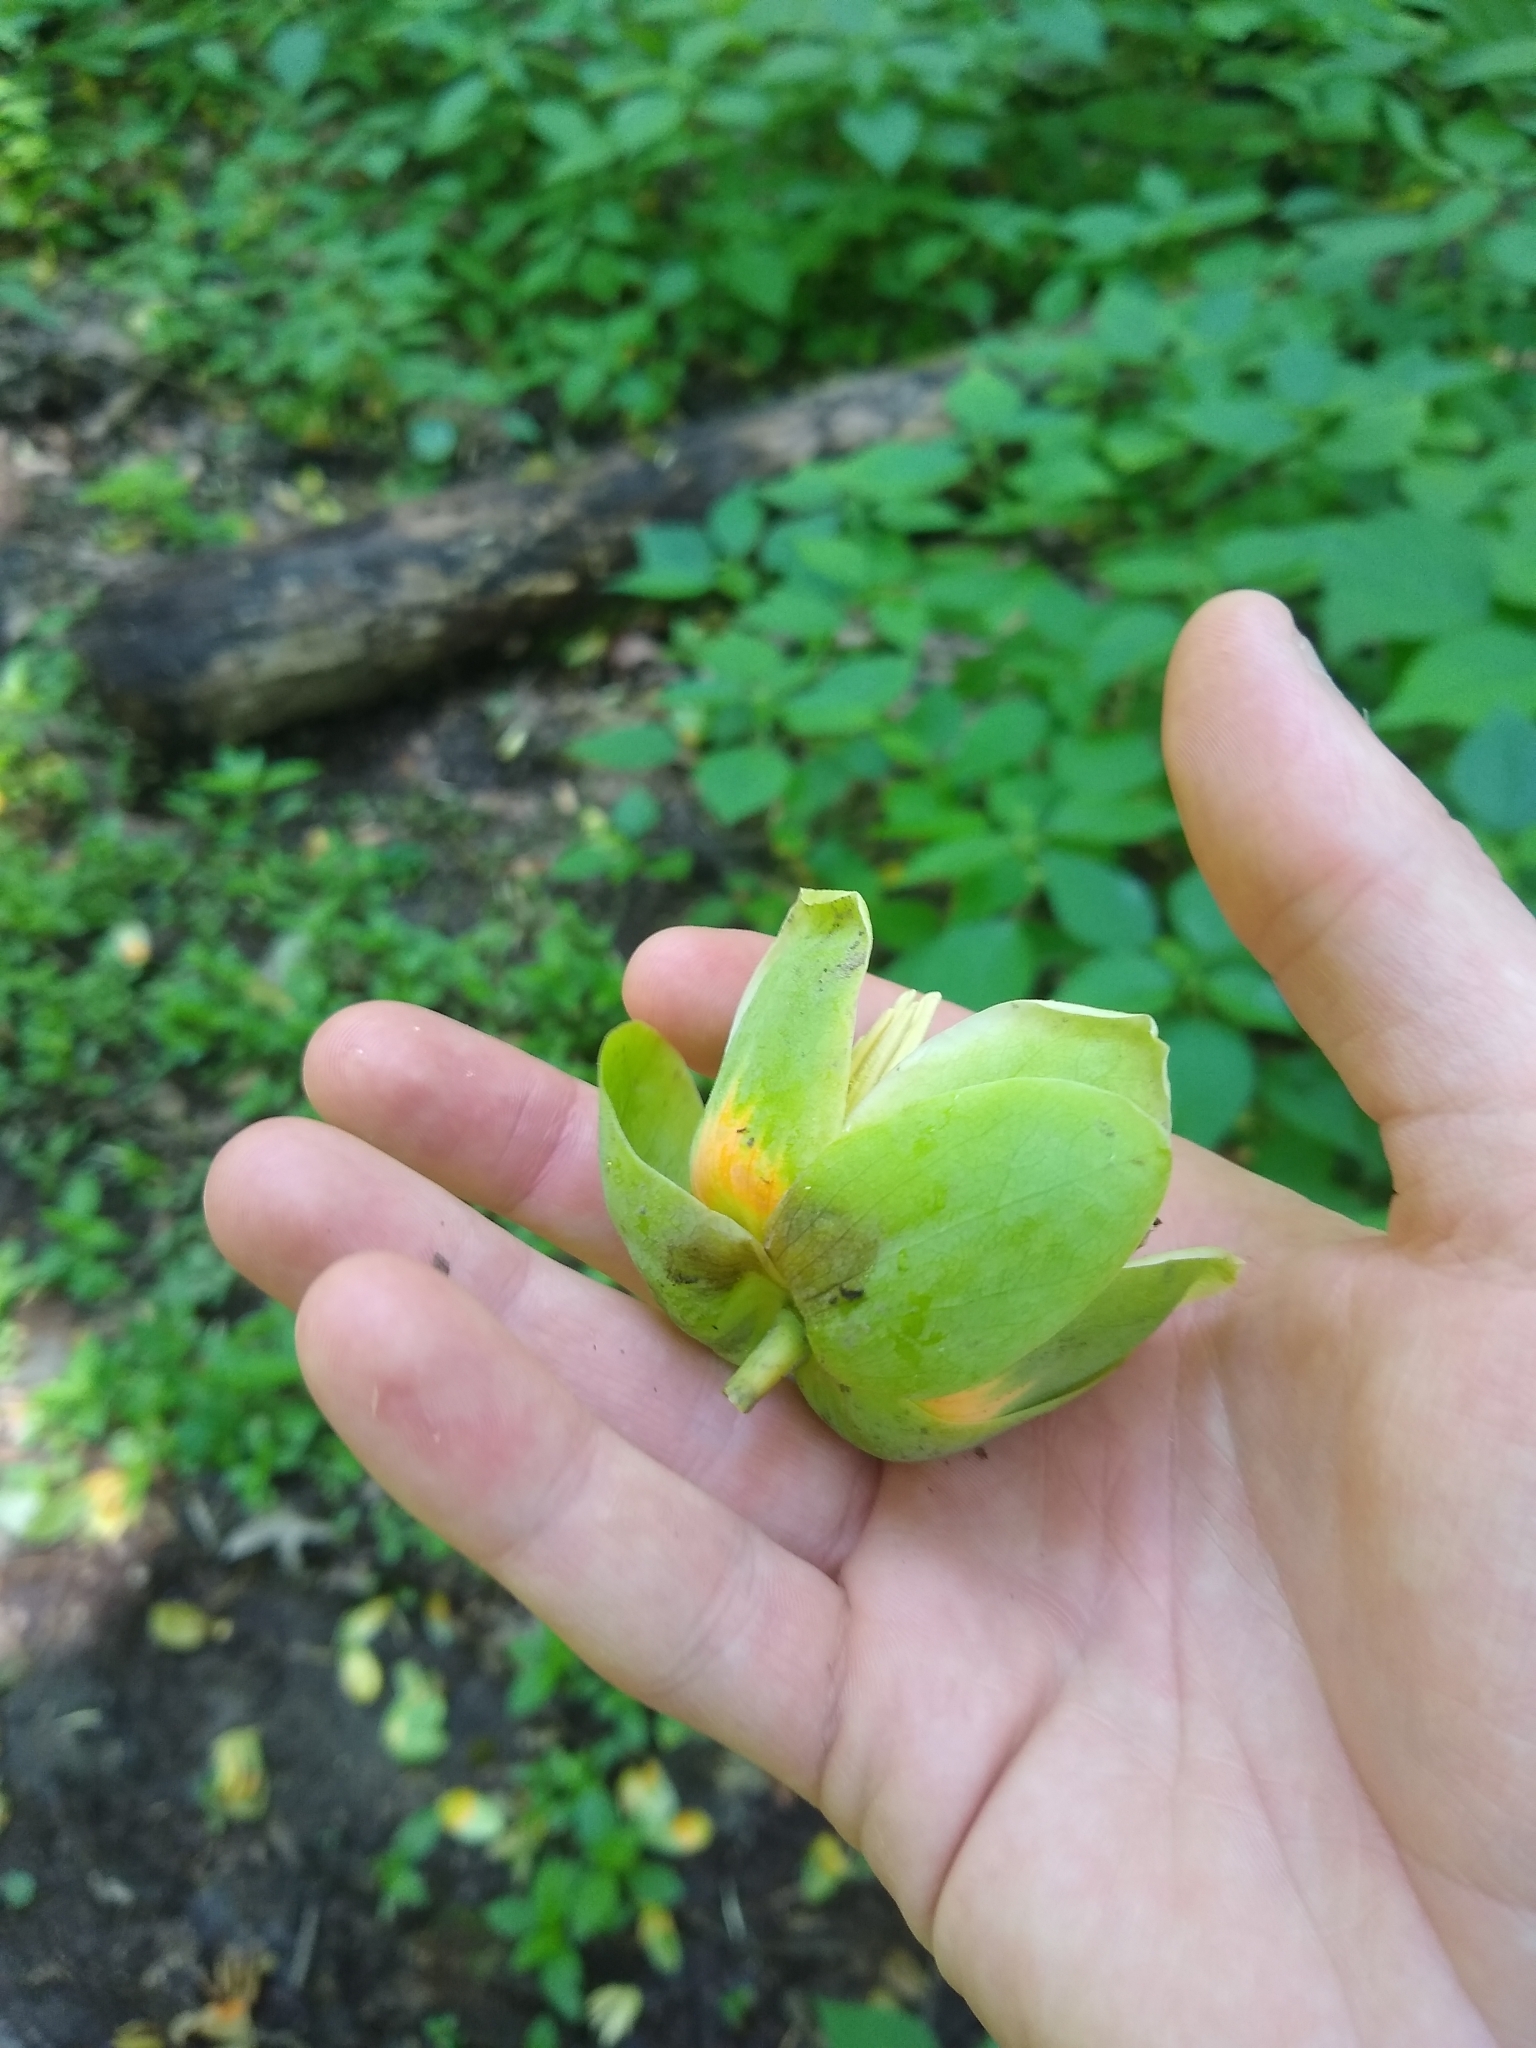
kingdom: Plantae
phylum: Tracheophyta
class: Magnoliopsida
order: Magnoliales
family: Magnoliaceae
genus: Liriodendron
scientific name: Liriodendron tulipifera
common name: Tulip tree
